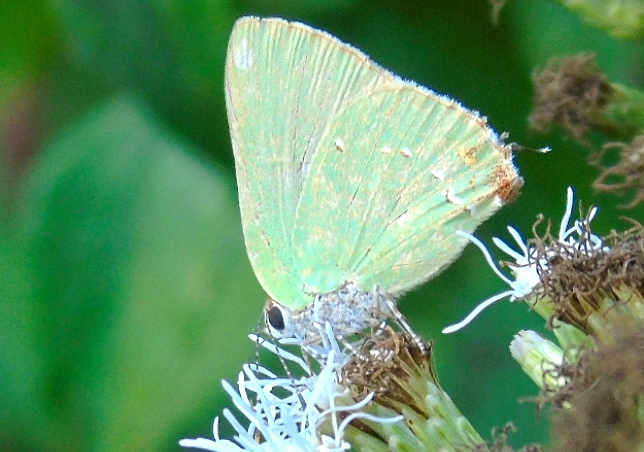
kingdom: Animalia
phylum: Arthropoda
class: Insecta
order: Lepidoptera
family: Lycaenidae
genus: Thecla
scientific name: Thecla herodotus
